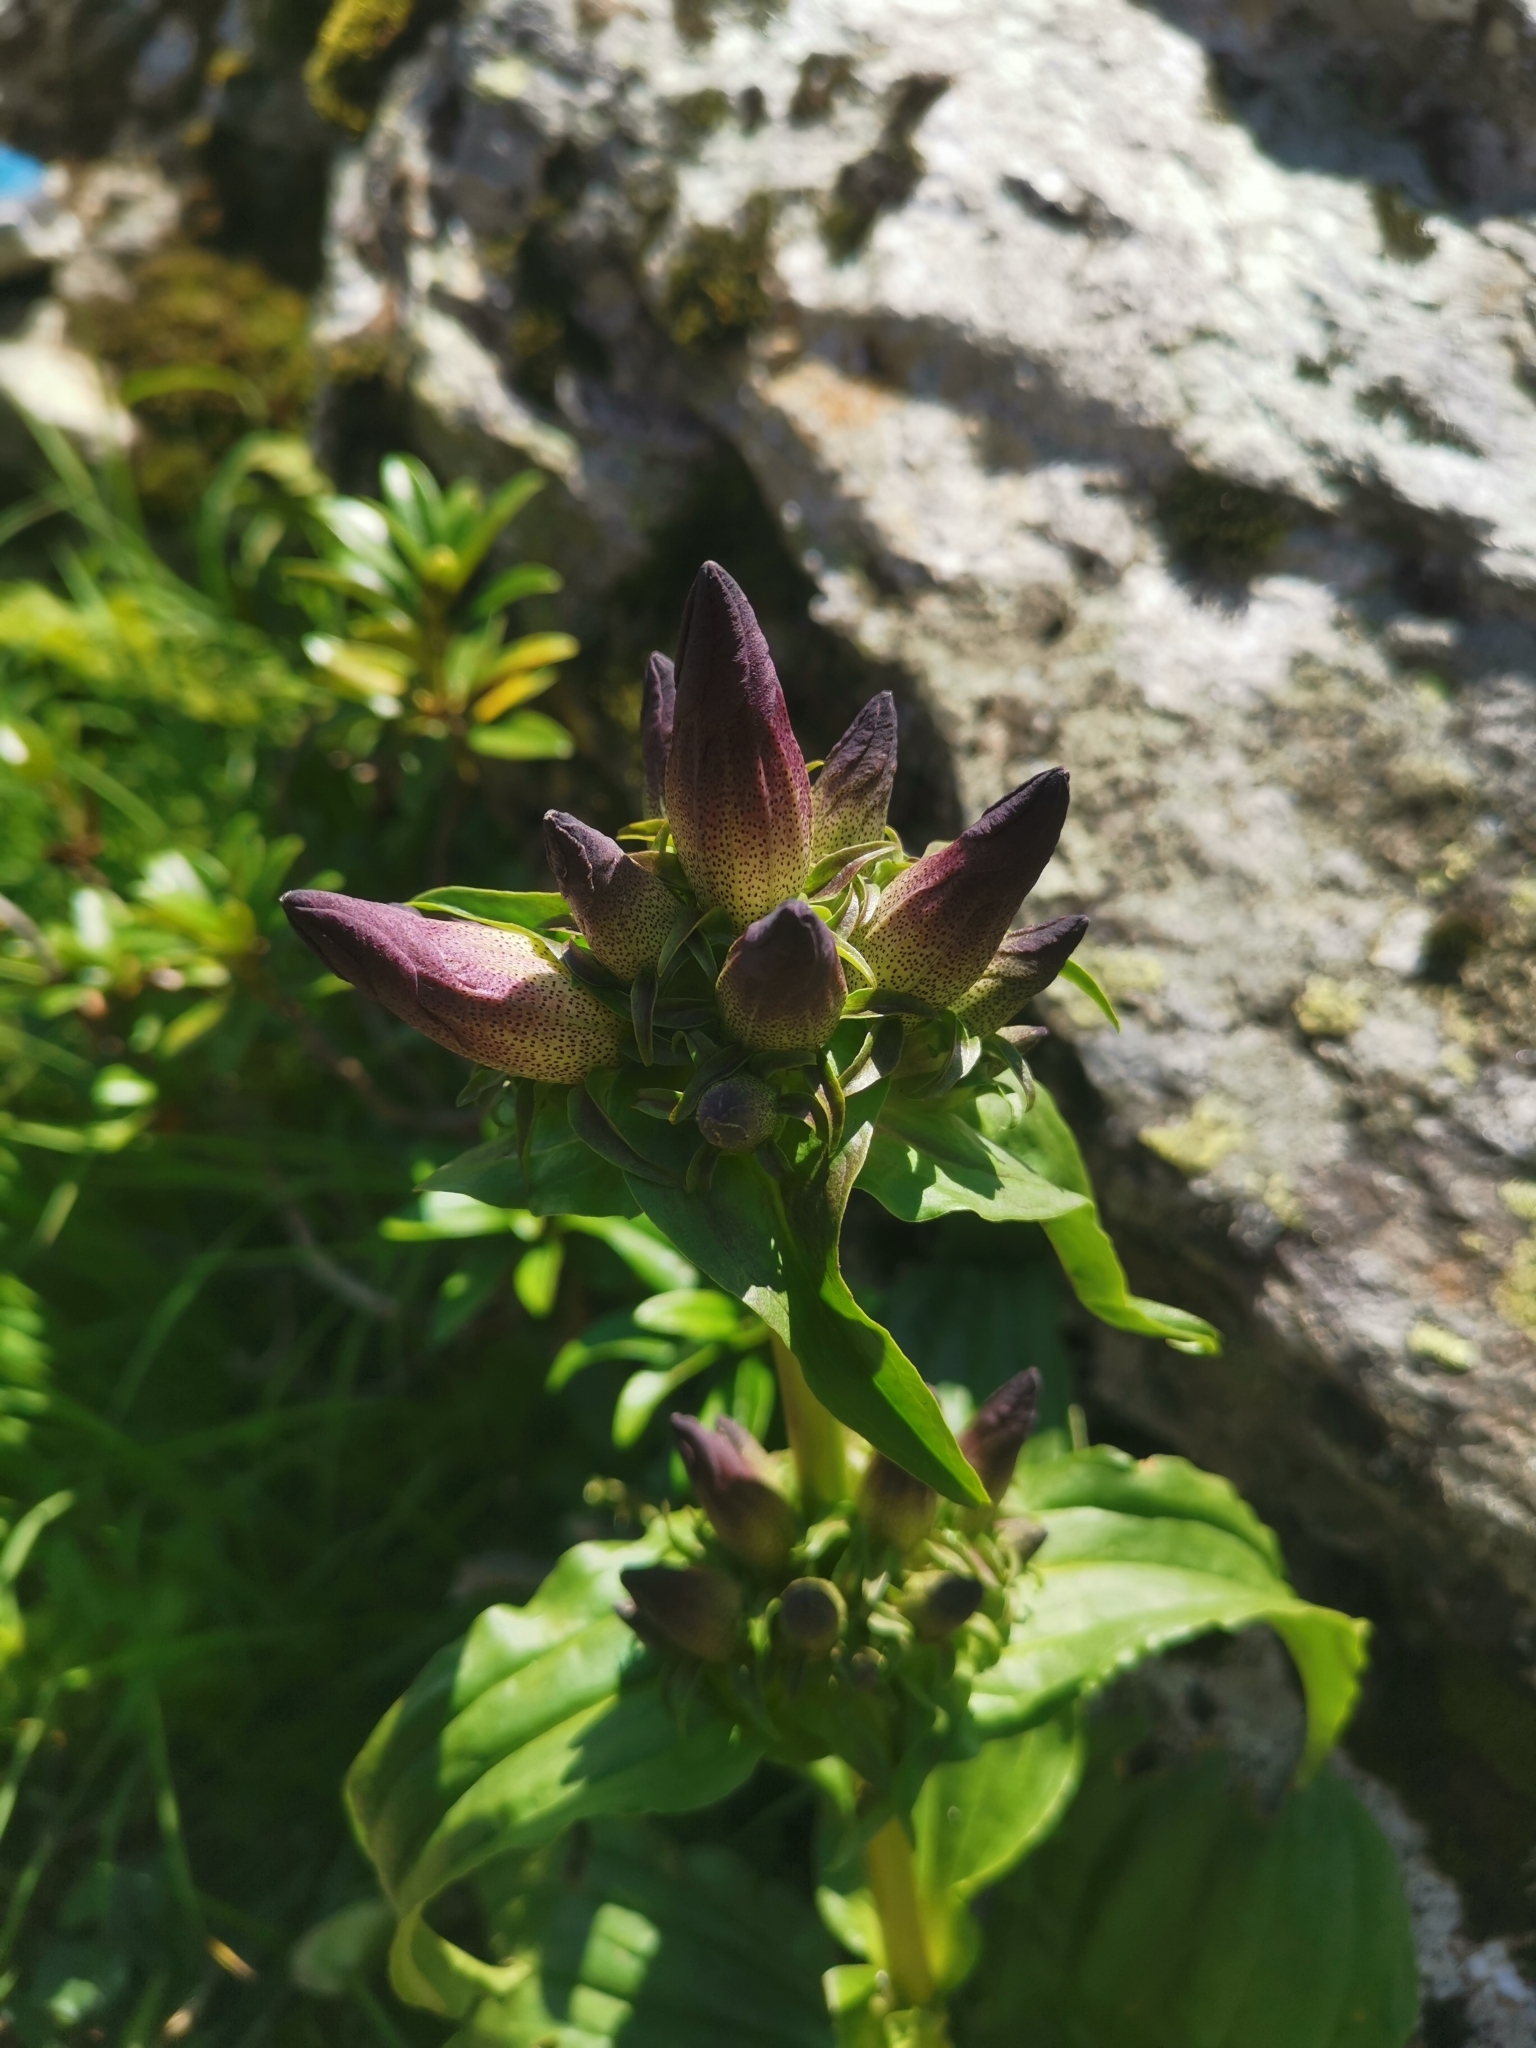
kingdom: Plantae
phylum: Tracheophyta
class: Magnoliopsida
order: Gentianales
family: Gentianaceae
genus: Gentiana
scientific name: Gentiana pannonica
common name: Hungarian gentian
